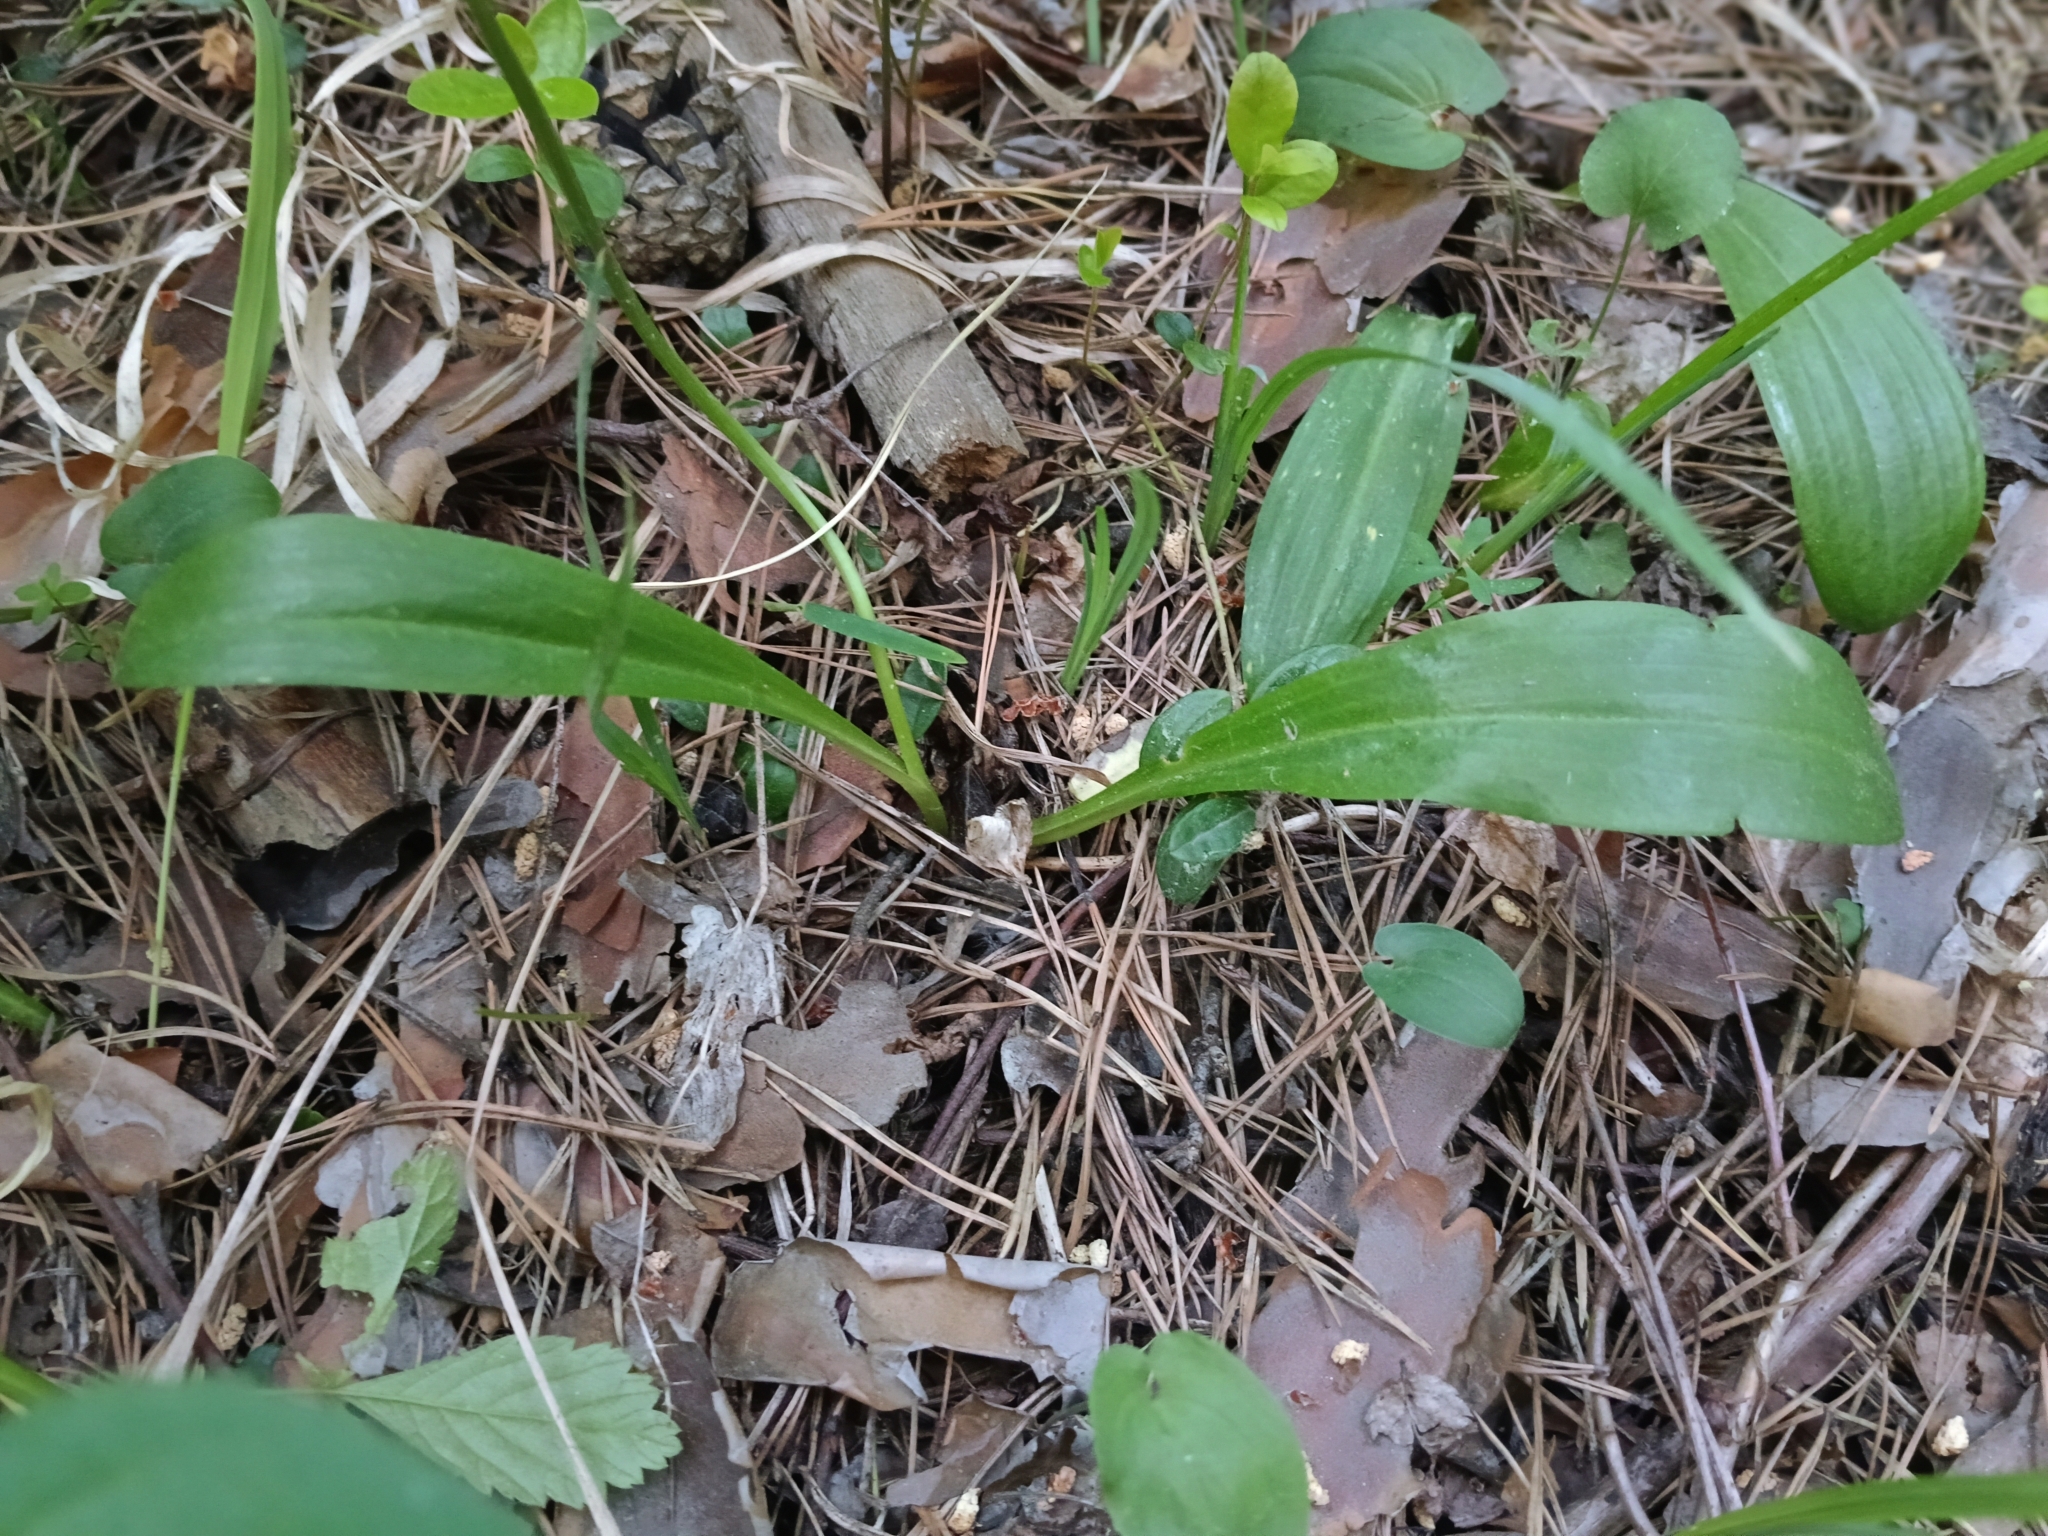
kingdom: Plantae
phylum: Tracheophyta
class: Liliopsida
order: Asparagales
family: Orchidaceae
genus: Platanthera
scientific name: Platanthera bifolia
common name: Lesser butterfly-orchid
